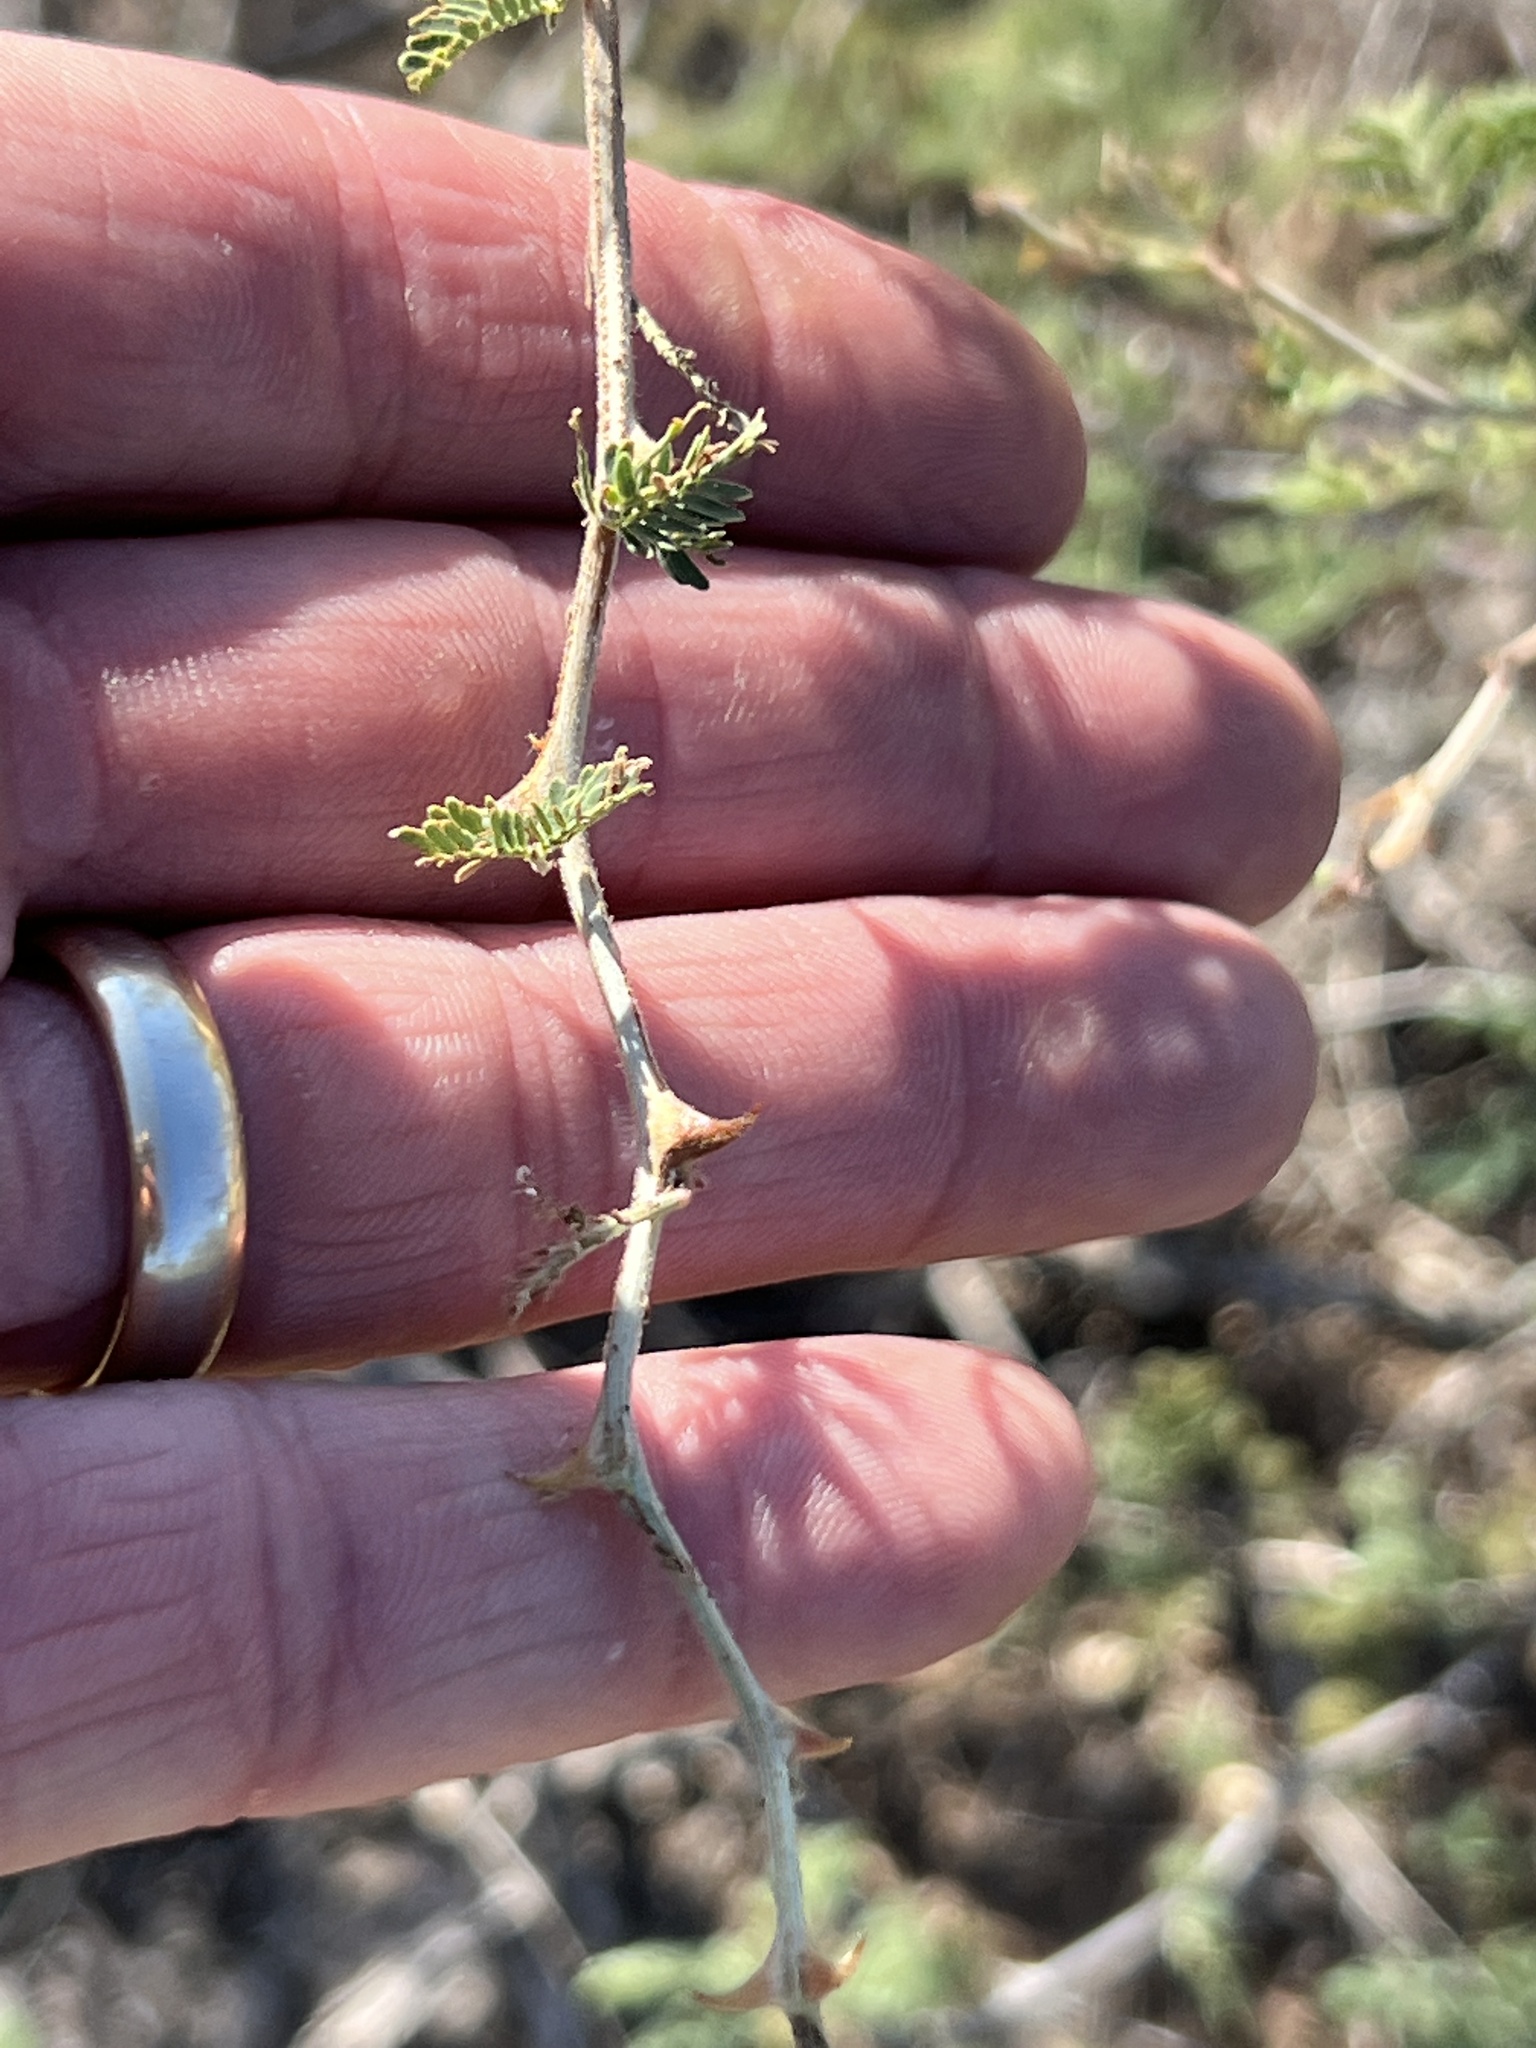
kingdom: Plantae
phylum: Tracheophyta
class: Magnoliopsida
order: Fabales
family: Fabaceae
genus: Mimosa
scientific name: Mimosa aculeaticarpa
